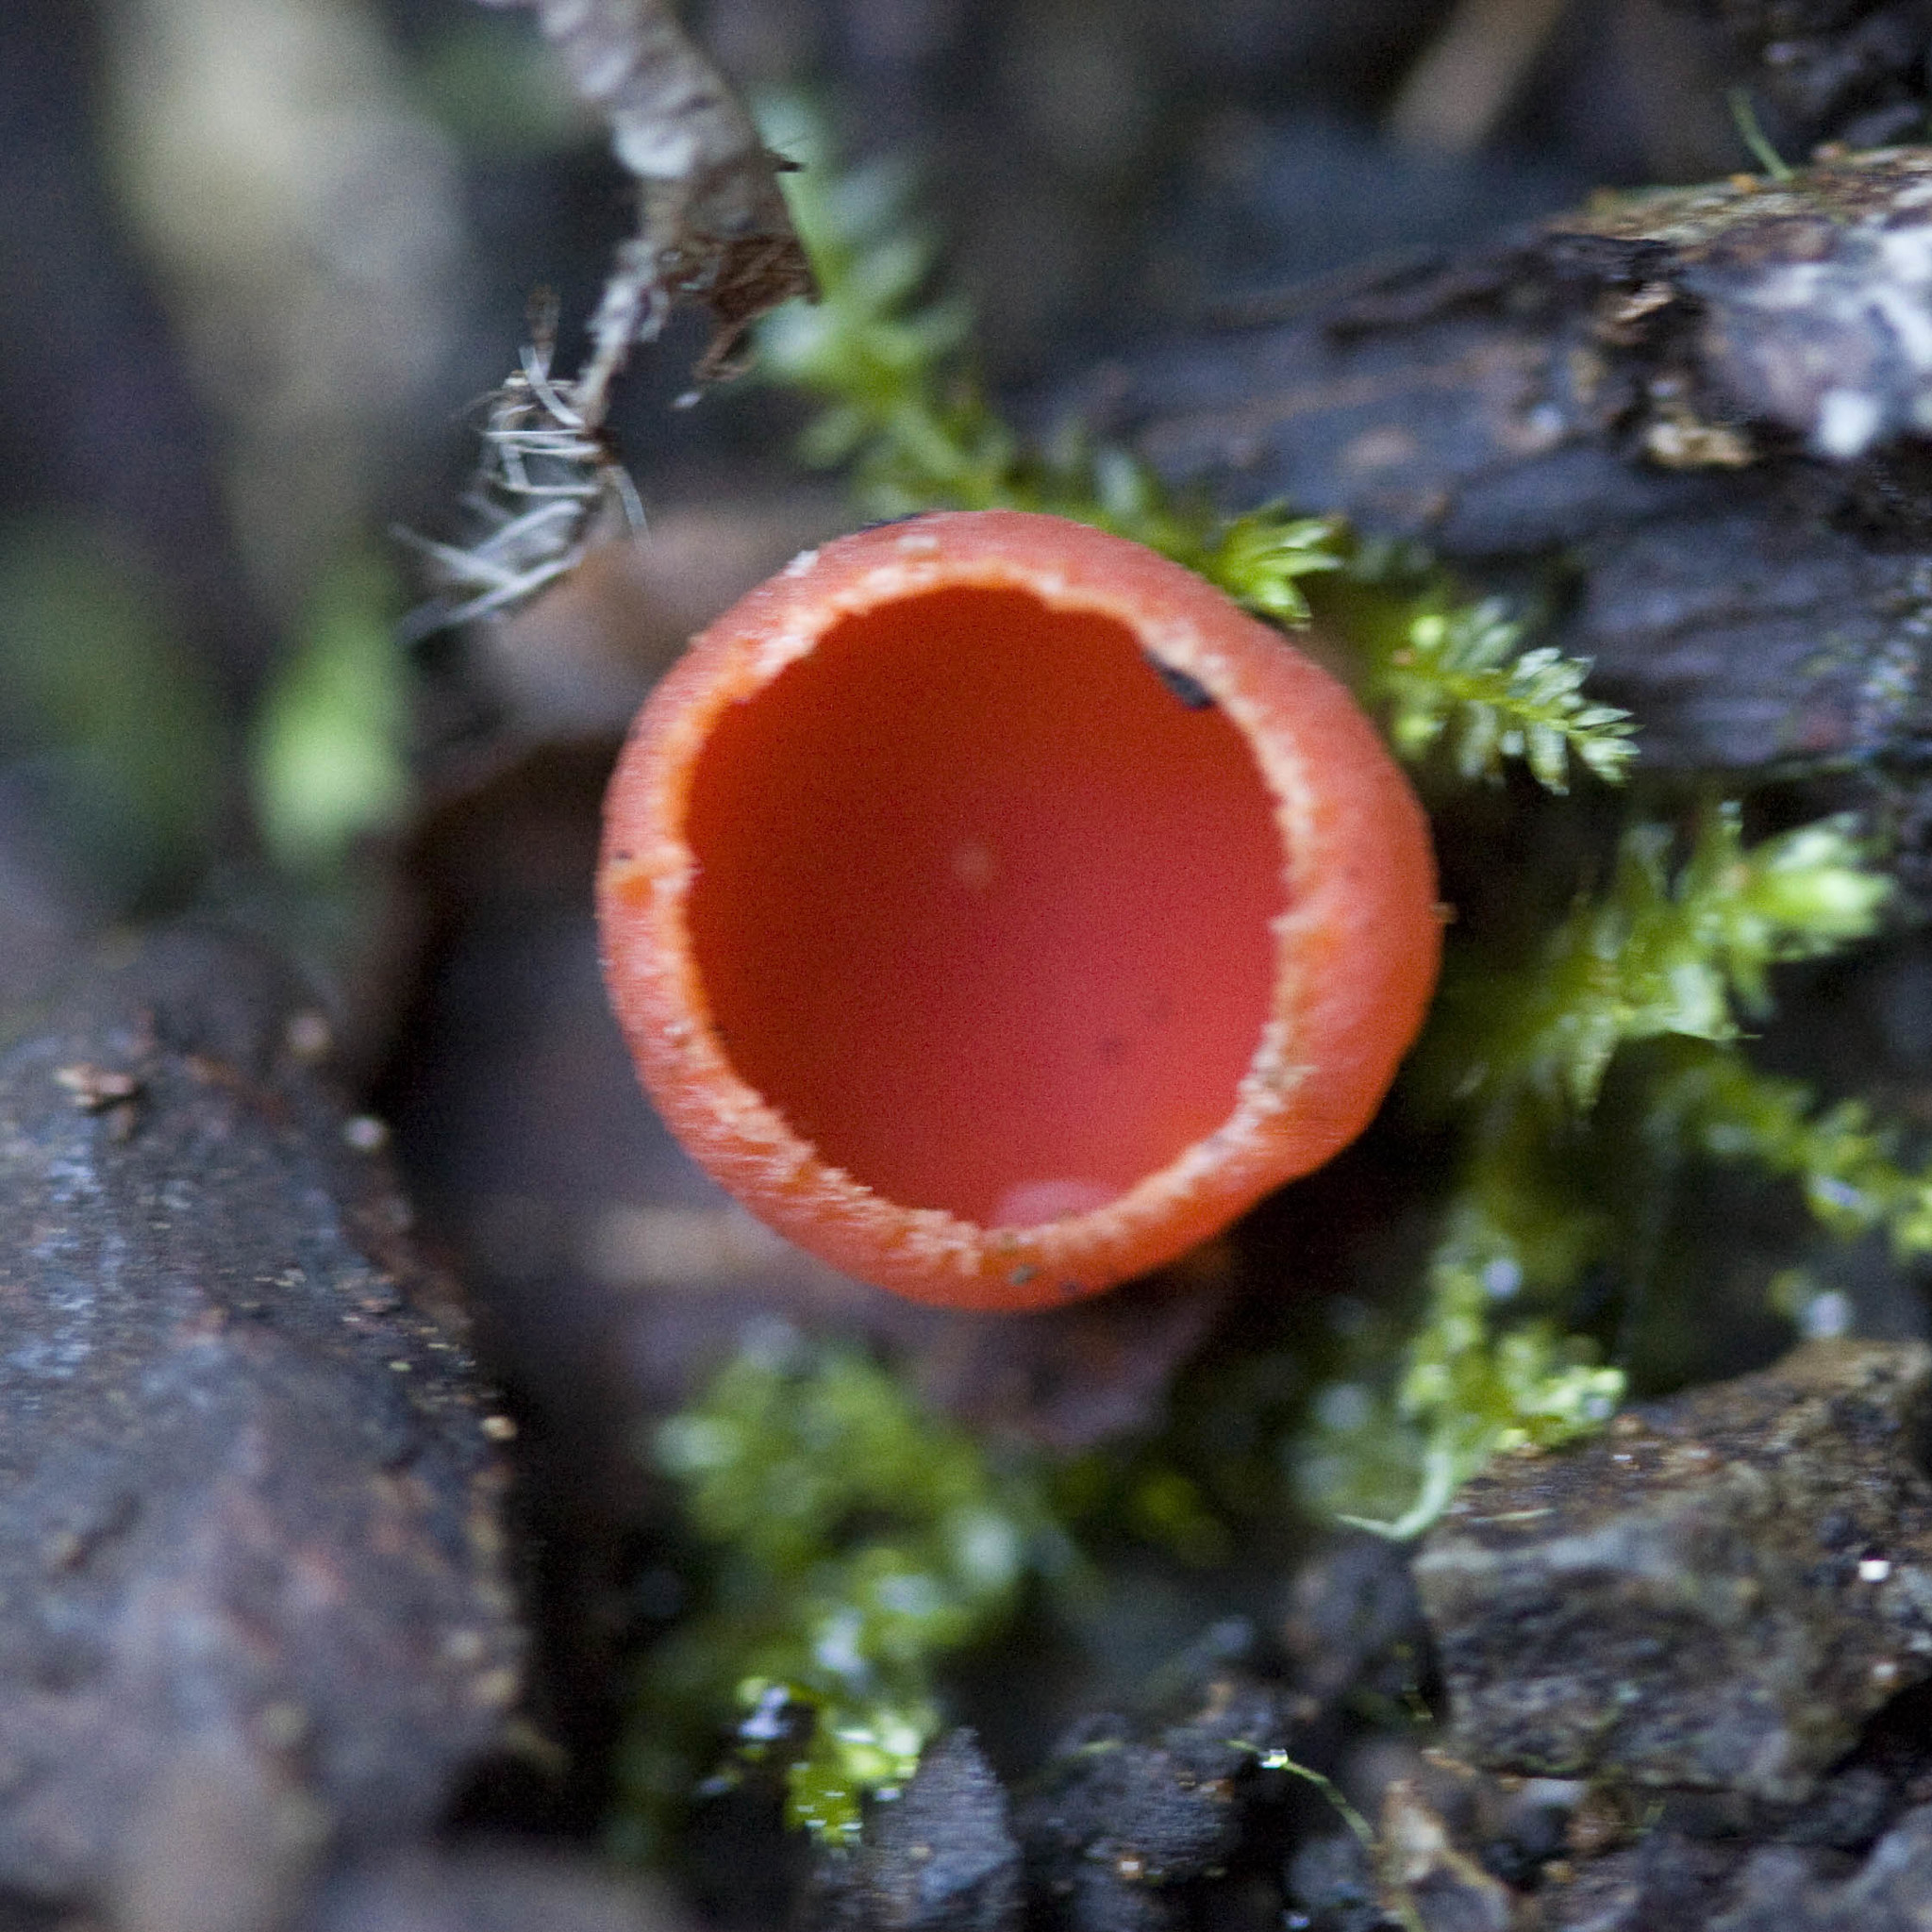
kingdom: Fungi
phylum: Ascomycota
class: Pezizomycetes
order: Pezizales
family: Sarcoscyphaceae
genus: Sarcoscypha
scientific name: Sarcoscypha coccinea
